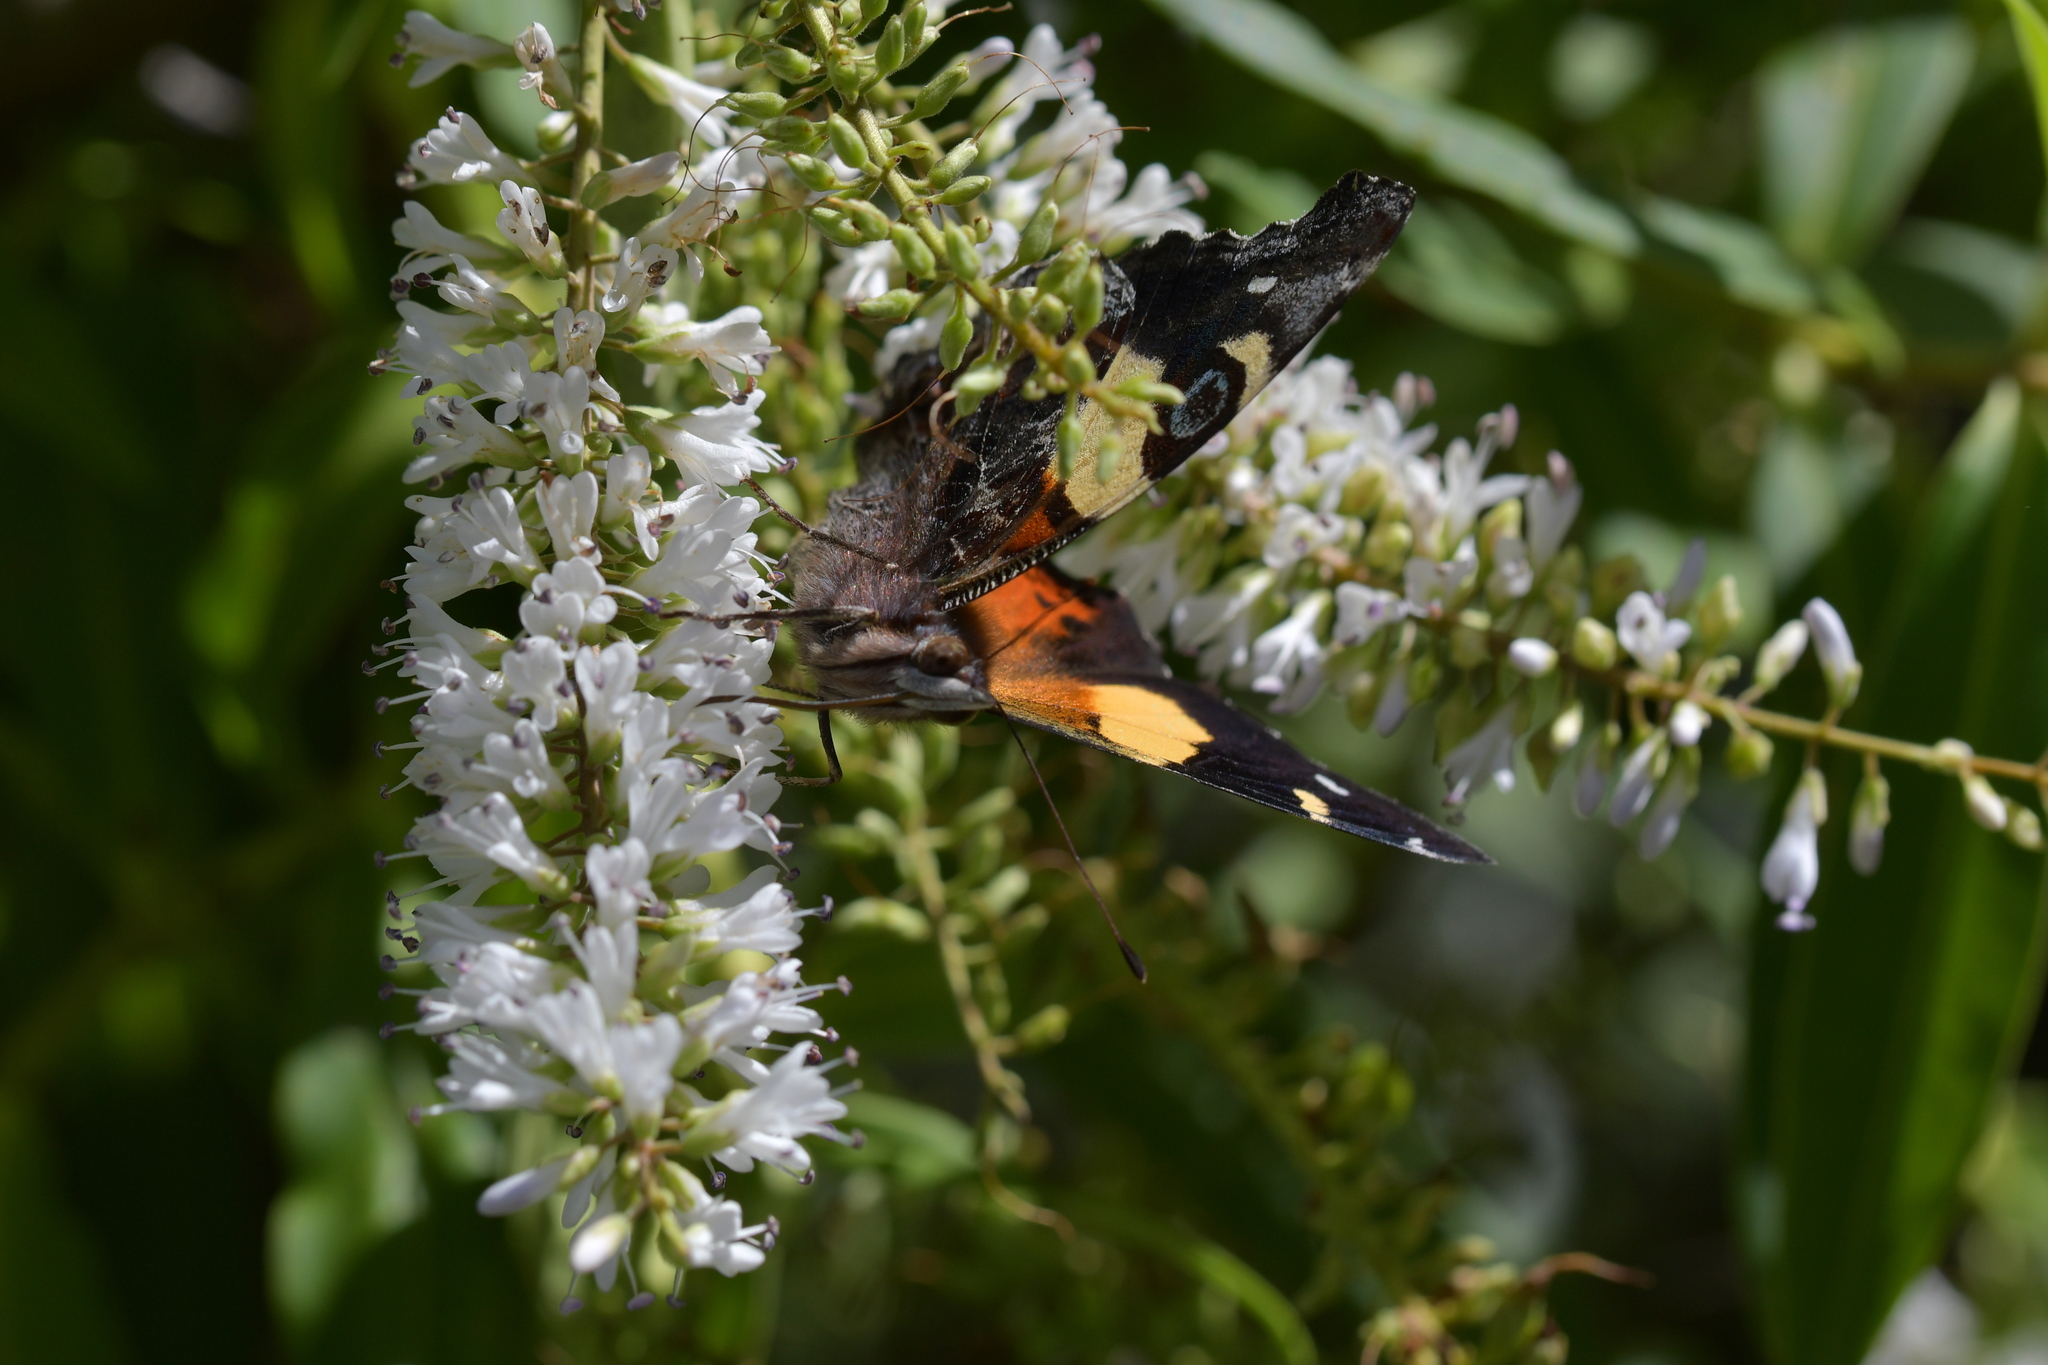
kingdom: Animalia
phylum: Arthropoda
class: Insecta
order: Lepidoptera
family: Nymphalidae
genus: Vanessa
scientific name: Vanessa itea
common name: Yellow admiral
